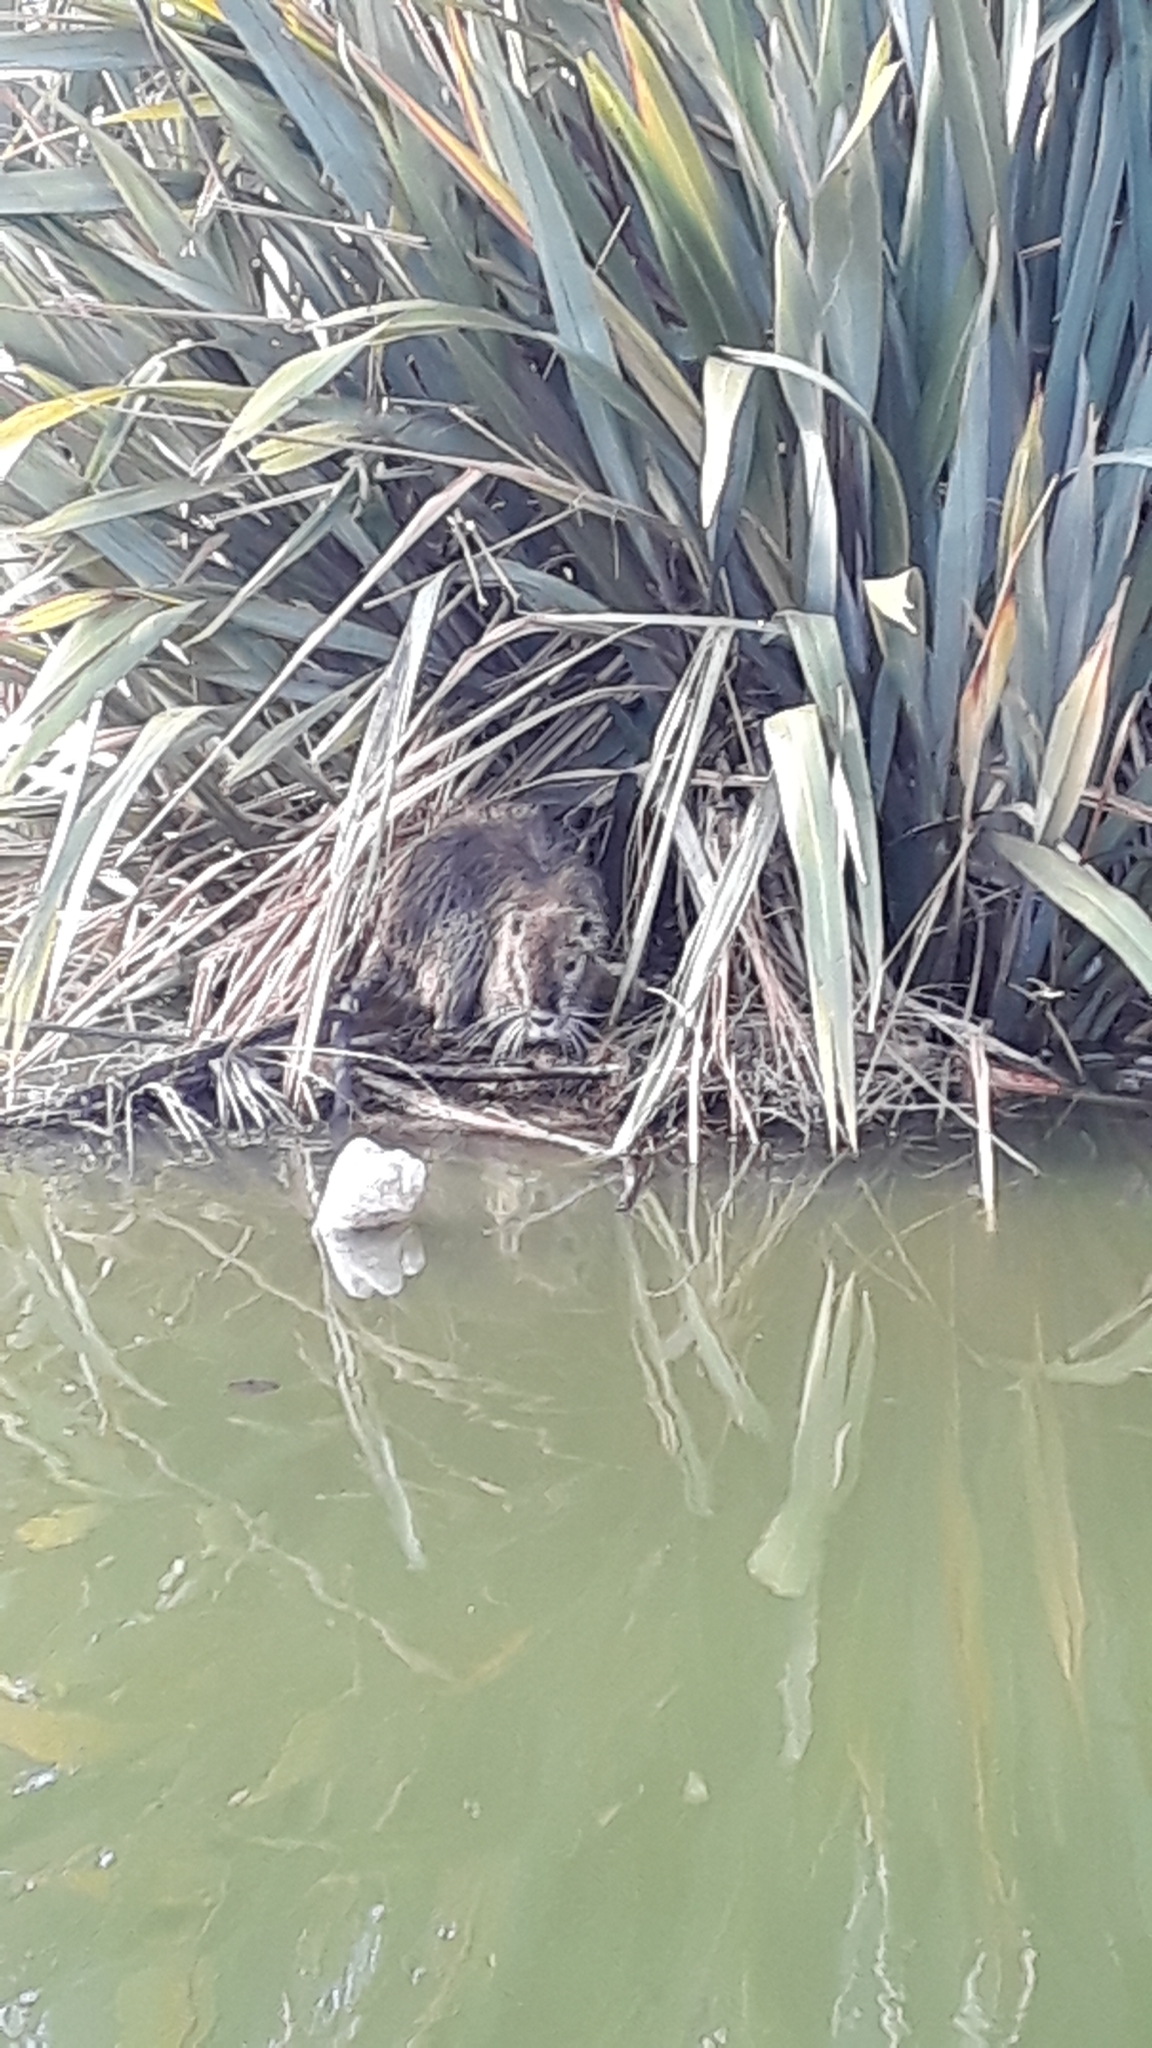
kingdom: Animalia
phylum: Chordata
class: Mammalia
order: Rodentia
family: Myocastoridae
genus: Myocastor
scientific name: Myocastor coypus
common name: Coypu
